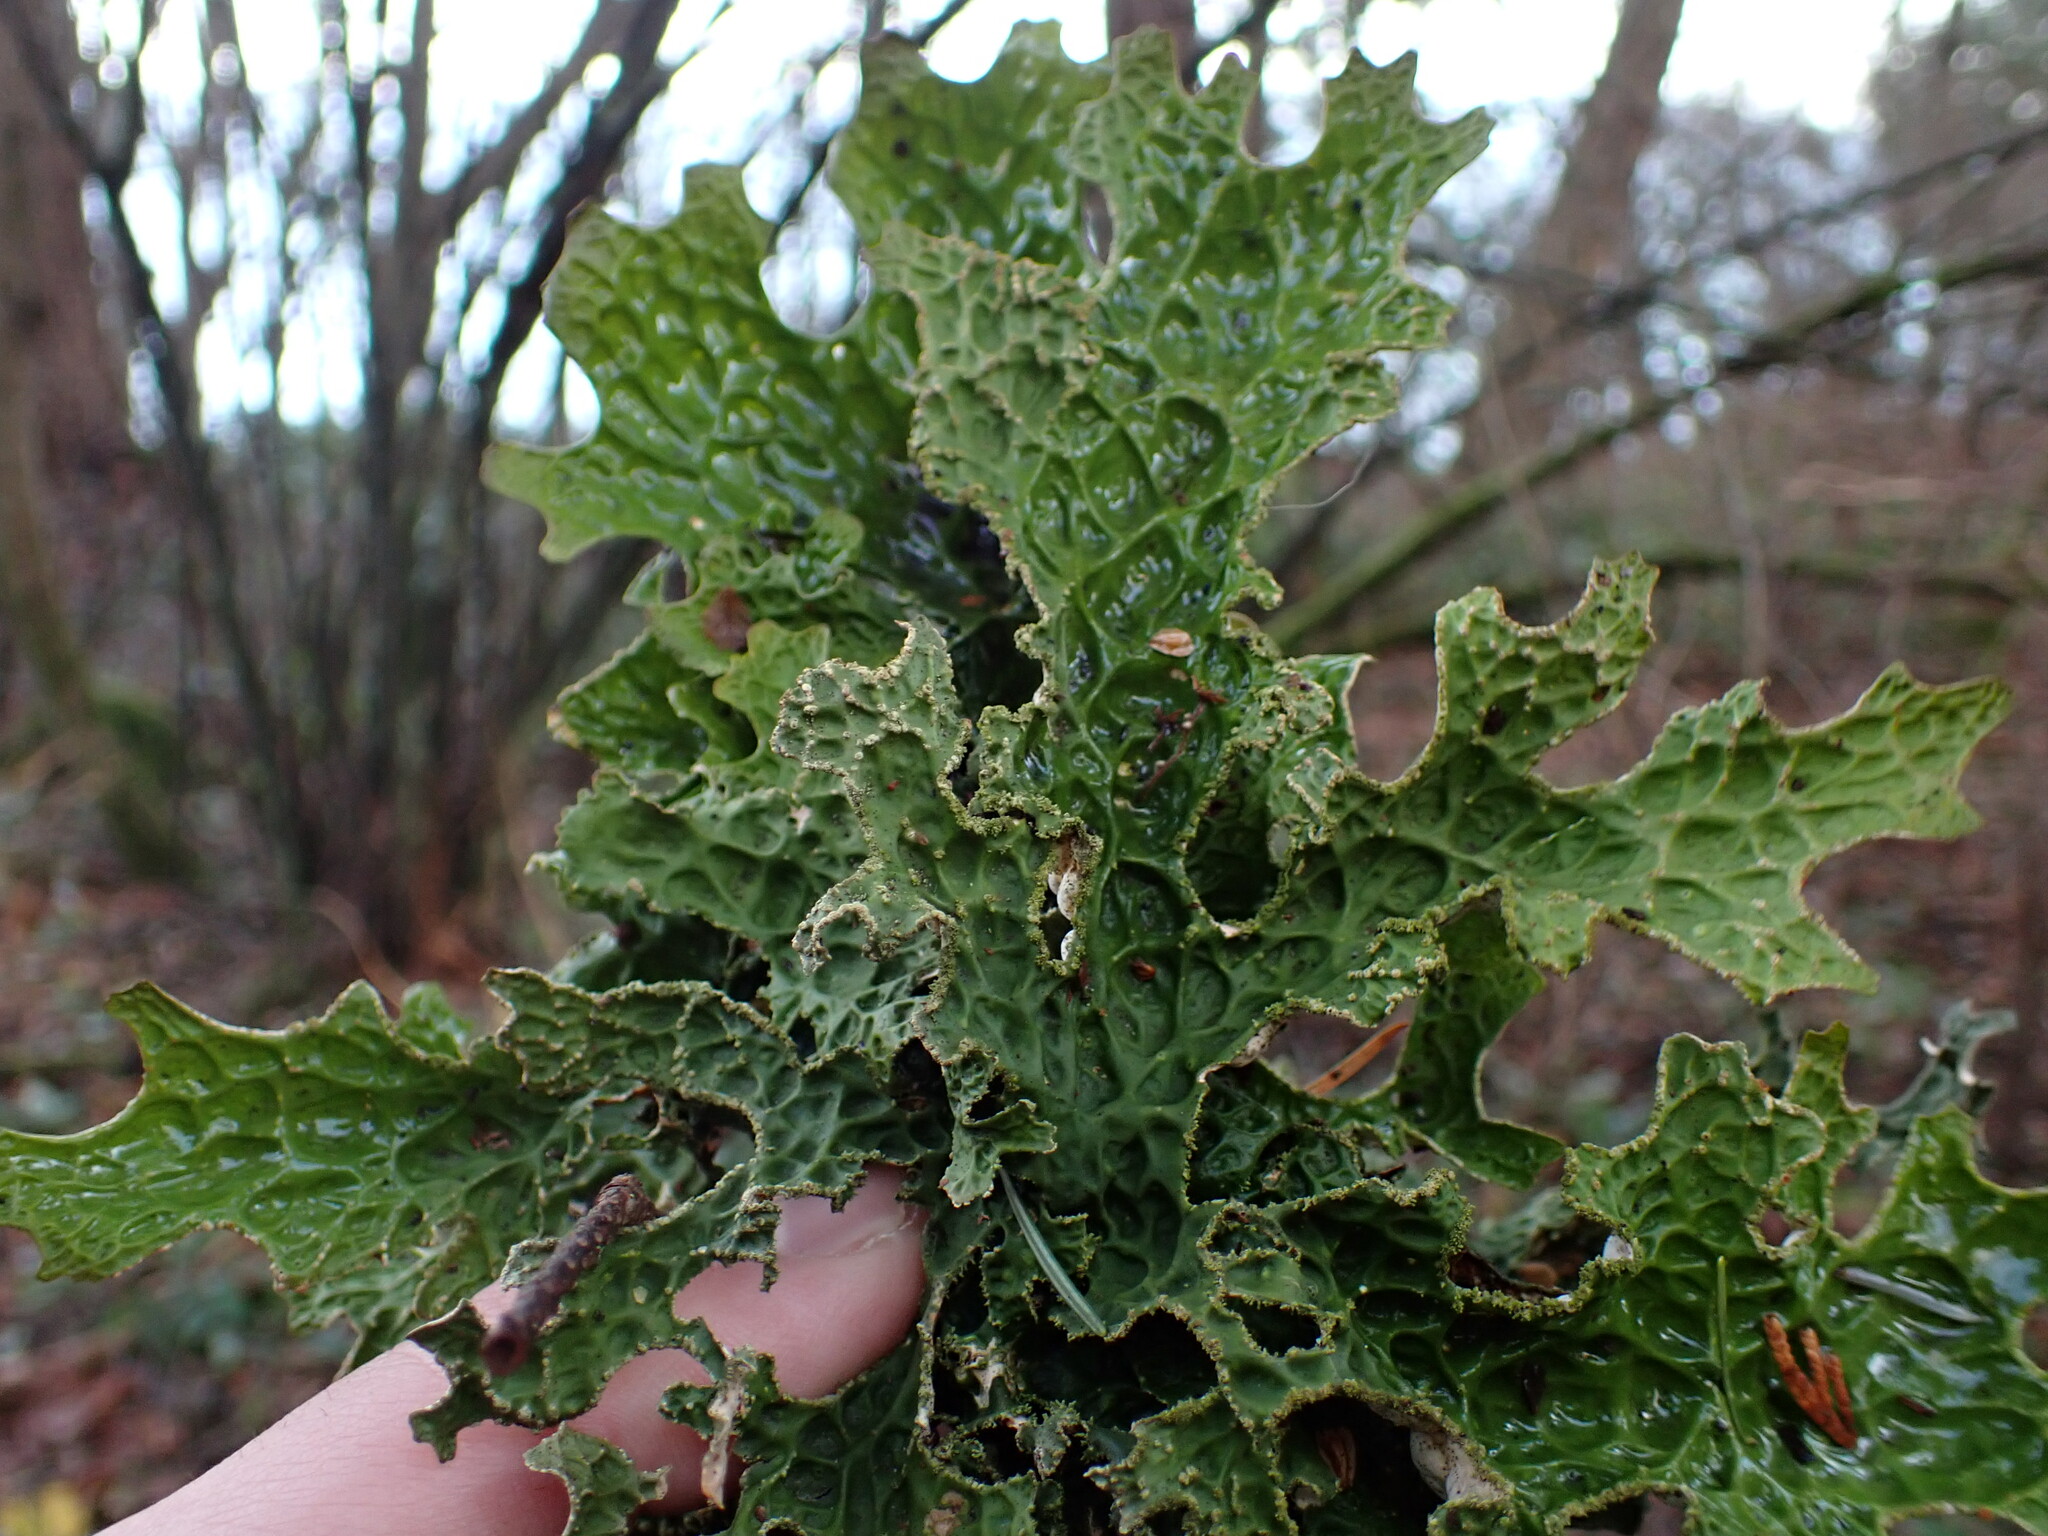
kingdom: Fungi
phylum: Ascomycota
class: Lecanoromycetes
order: Peltigerales
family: Lobariaceae
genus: Lobaria
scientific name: Lobaria pulmonaria
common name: Lungwort
